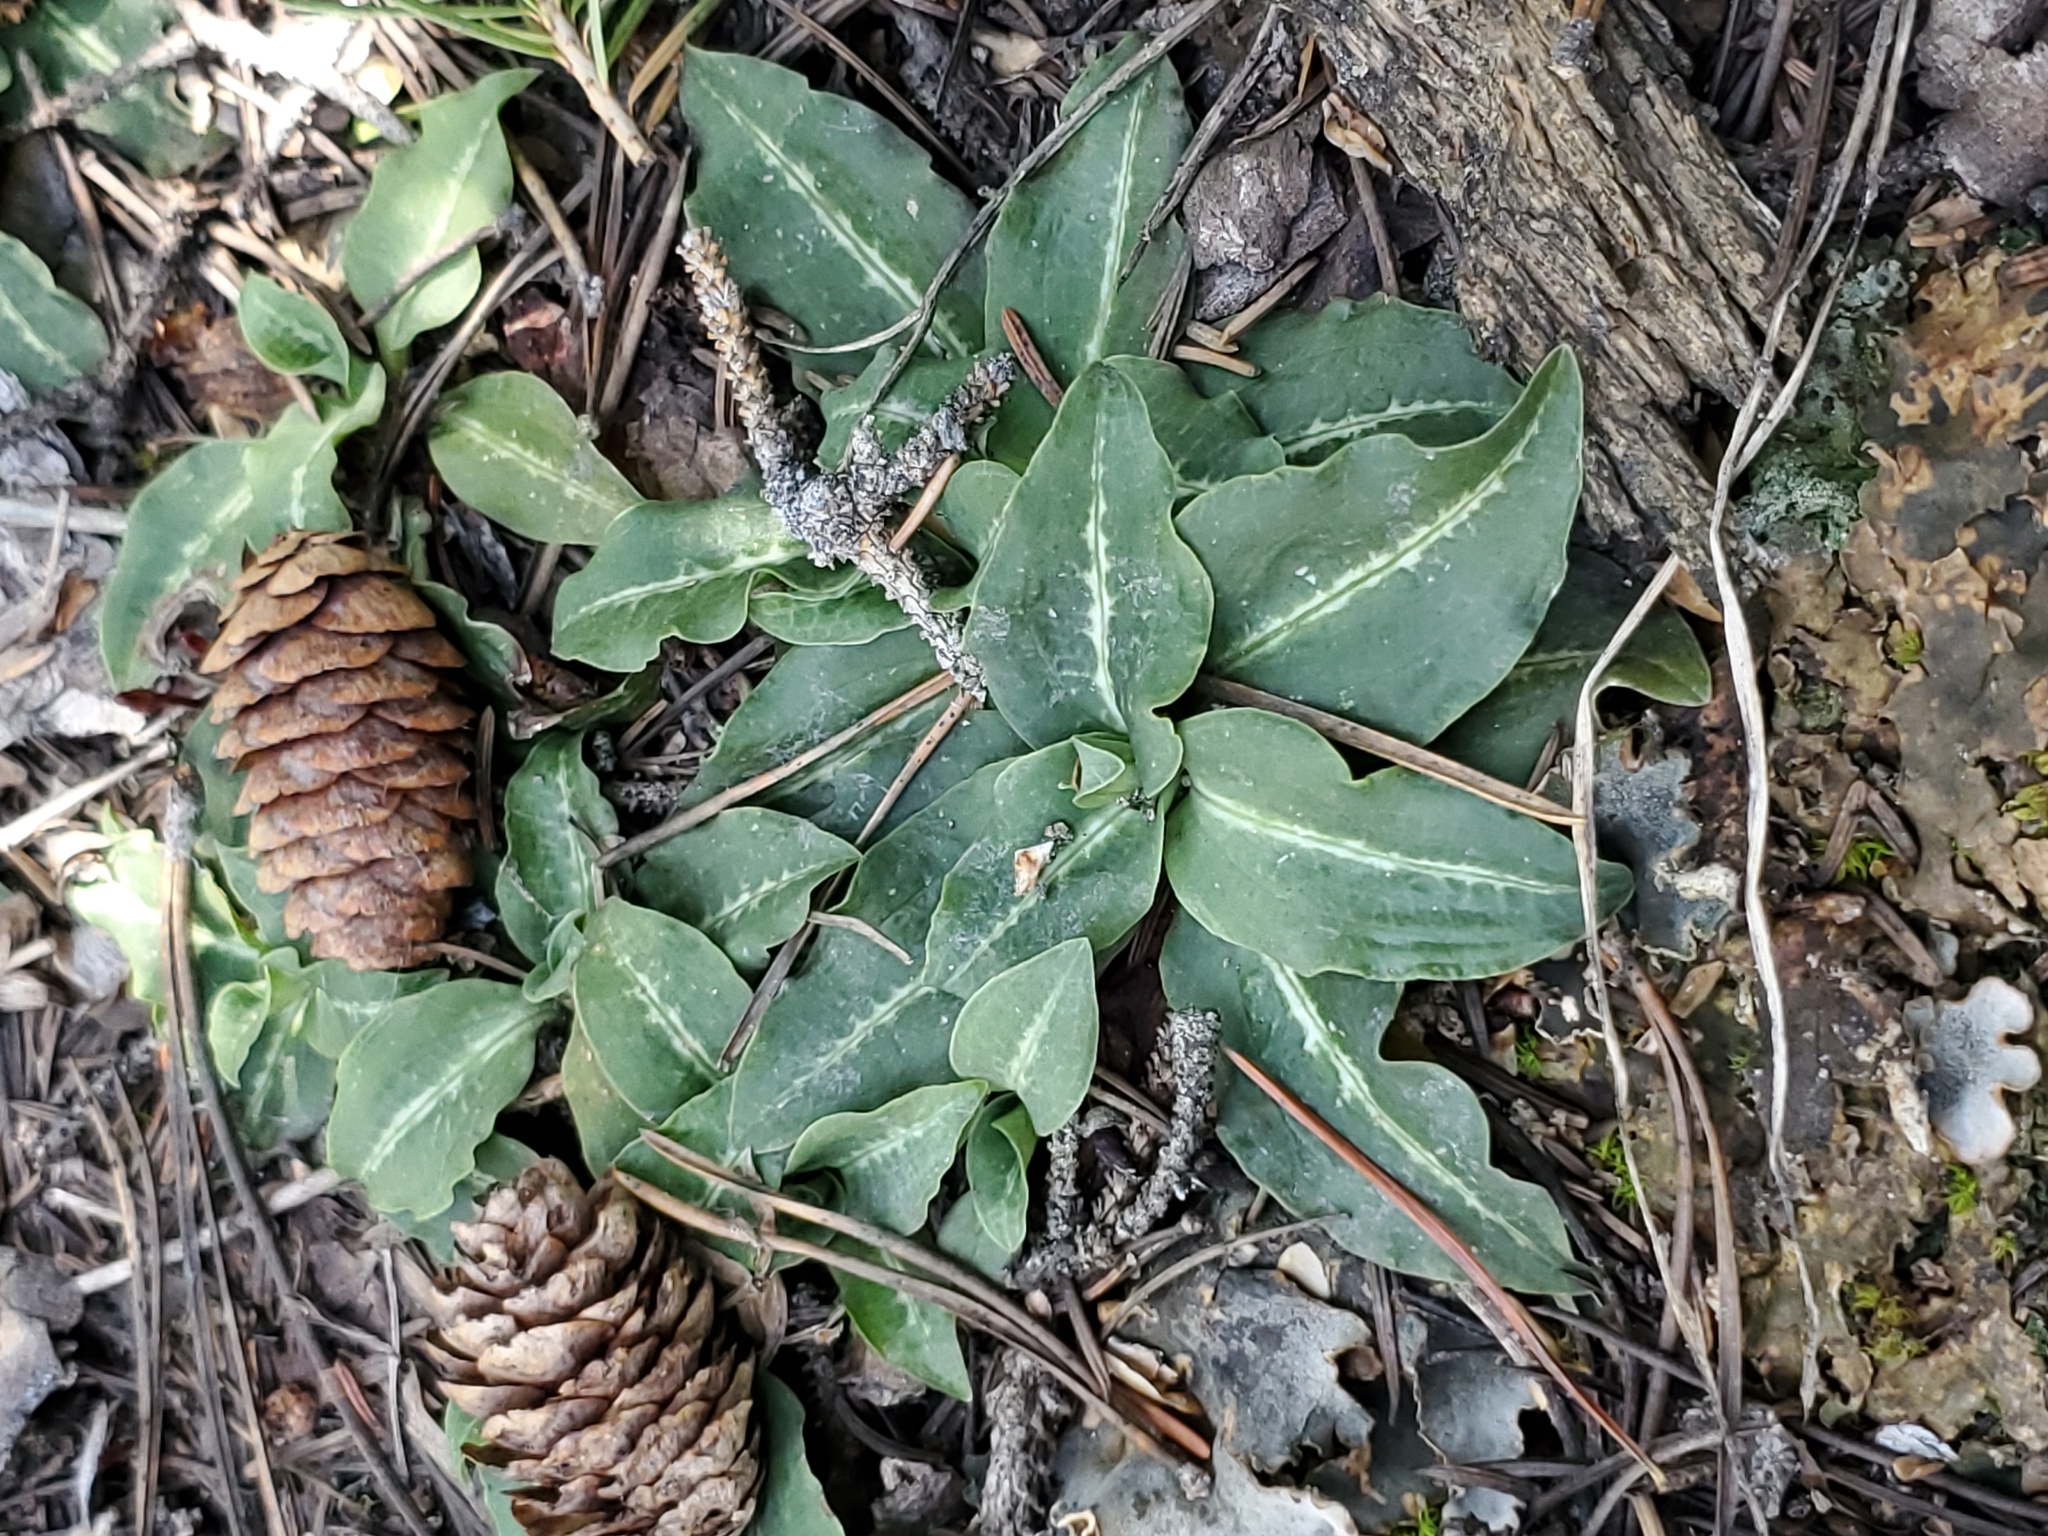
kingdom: Plantae
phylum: Tracheophyta
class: Liliopsida
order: Asparagales
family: Orchidaceae
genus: Goodyera
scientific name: Goodyera oblongifolia
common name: Giant rattlesnake-plantain
